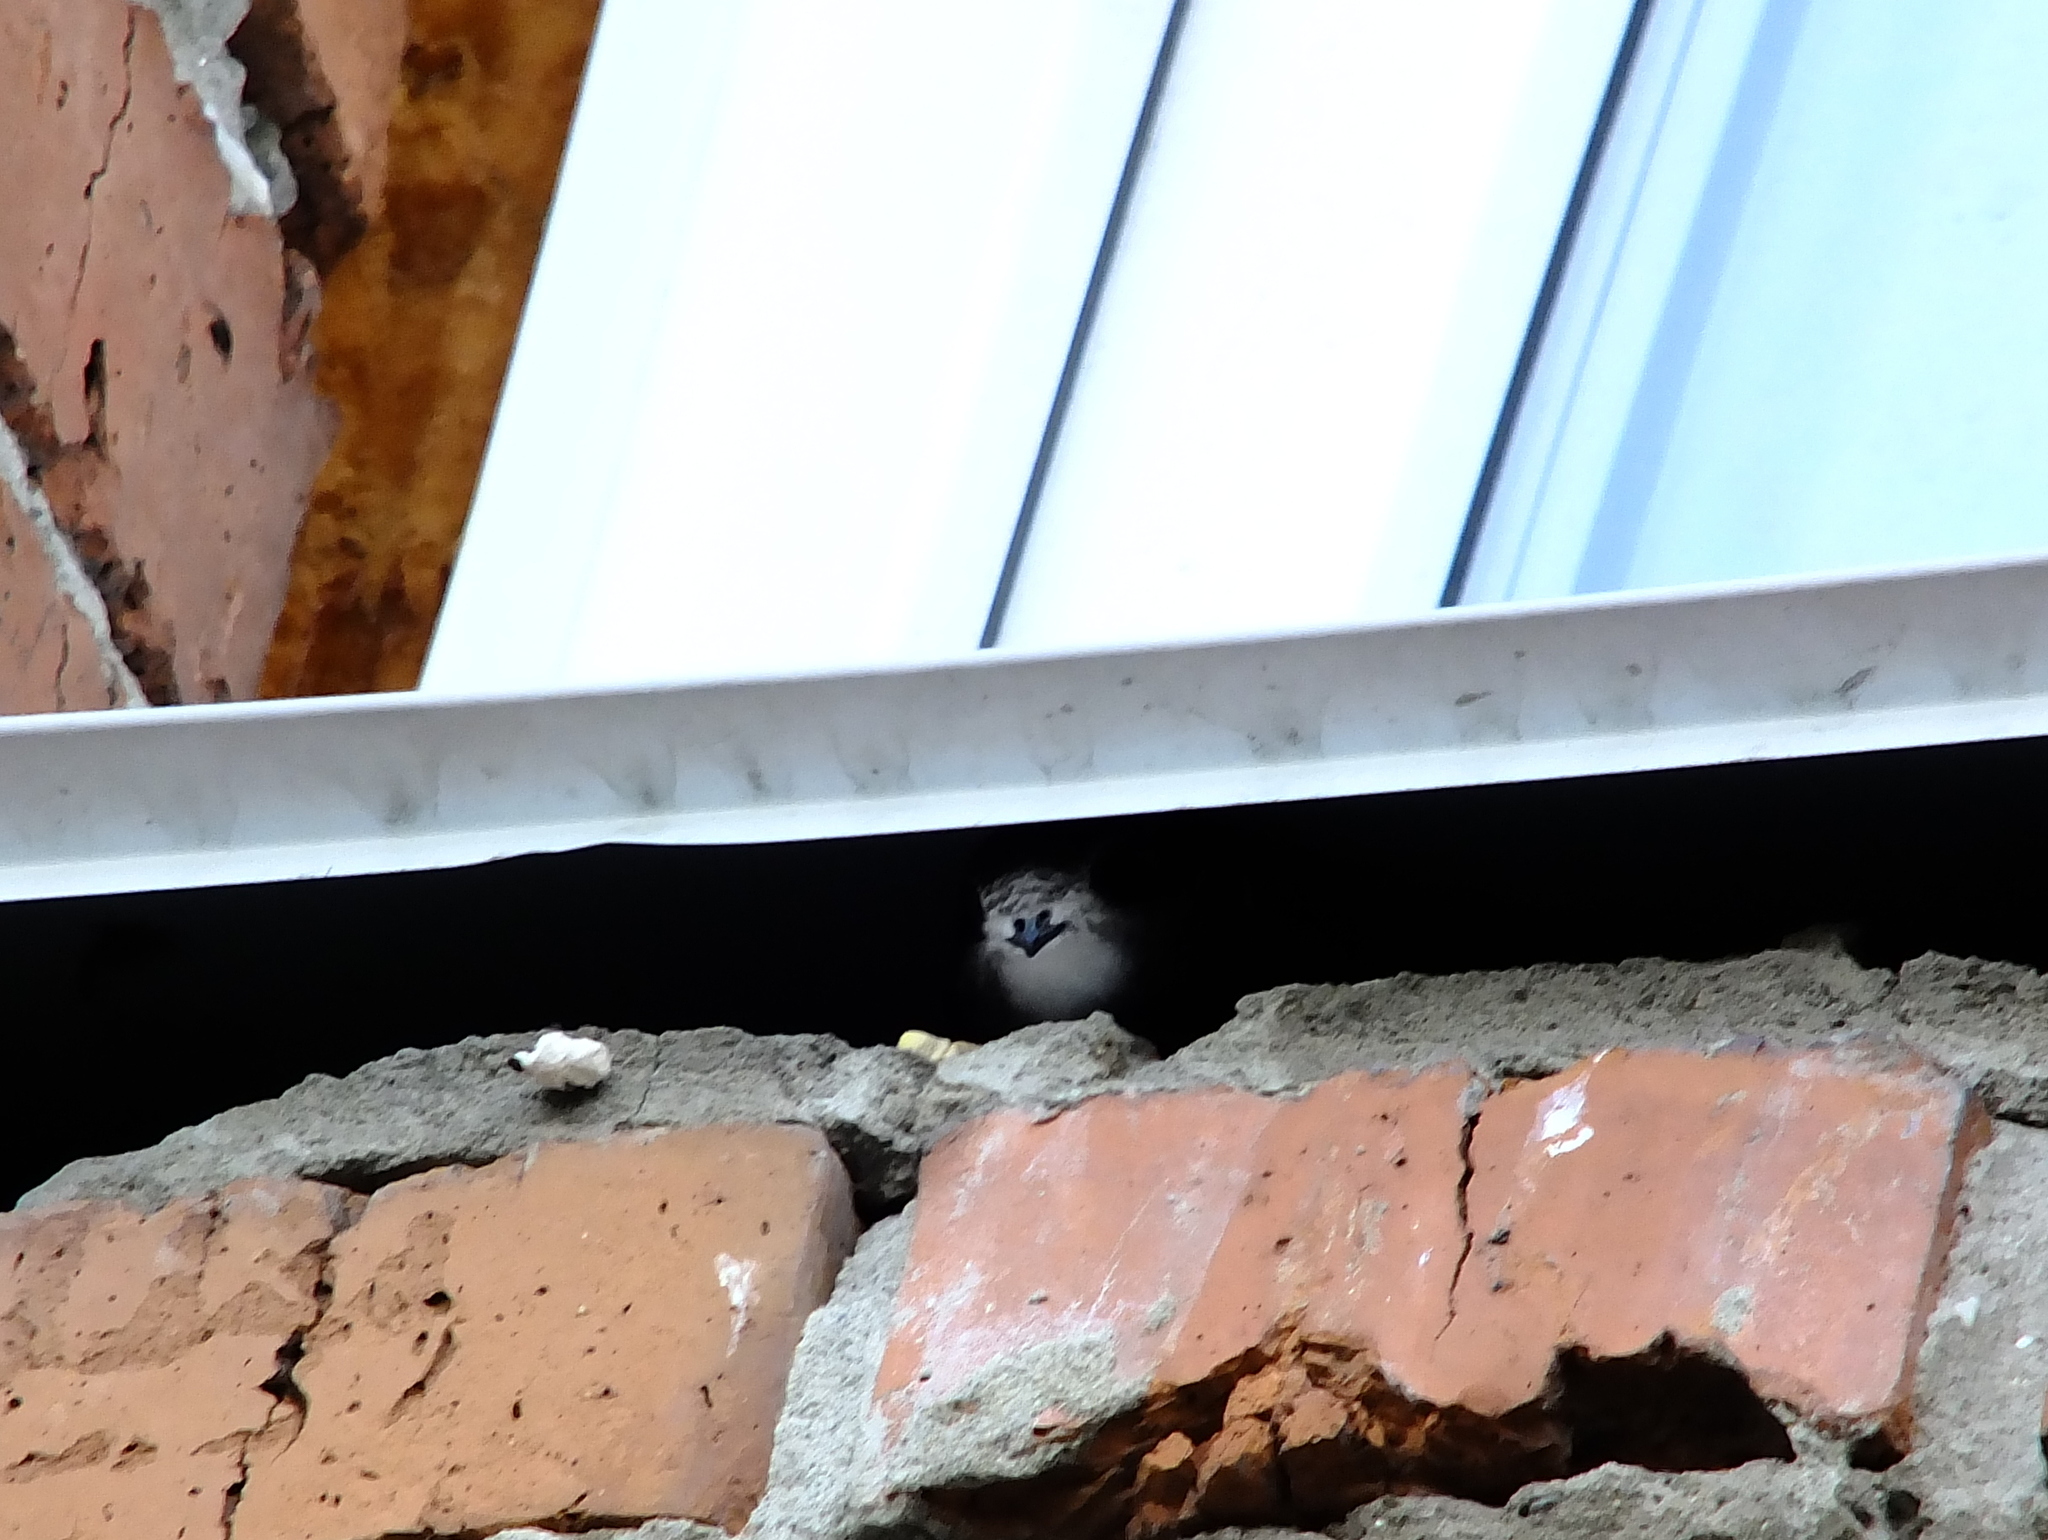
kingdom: Animalia
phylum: Chordata
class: Aves
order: Apodiformes
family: Apodidae
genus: Apus
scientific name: Apus apus
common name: Common swift
